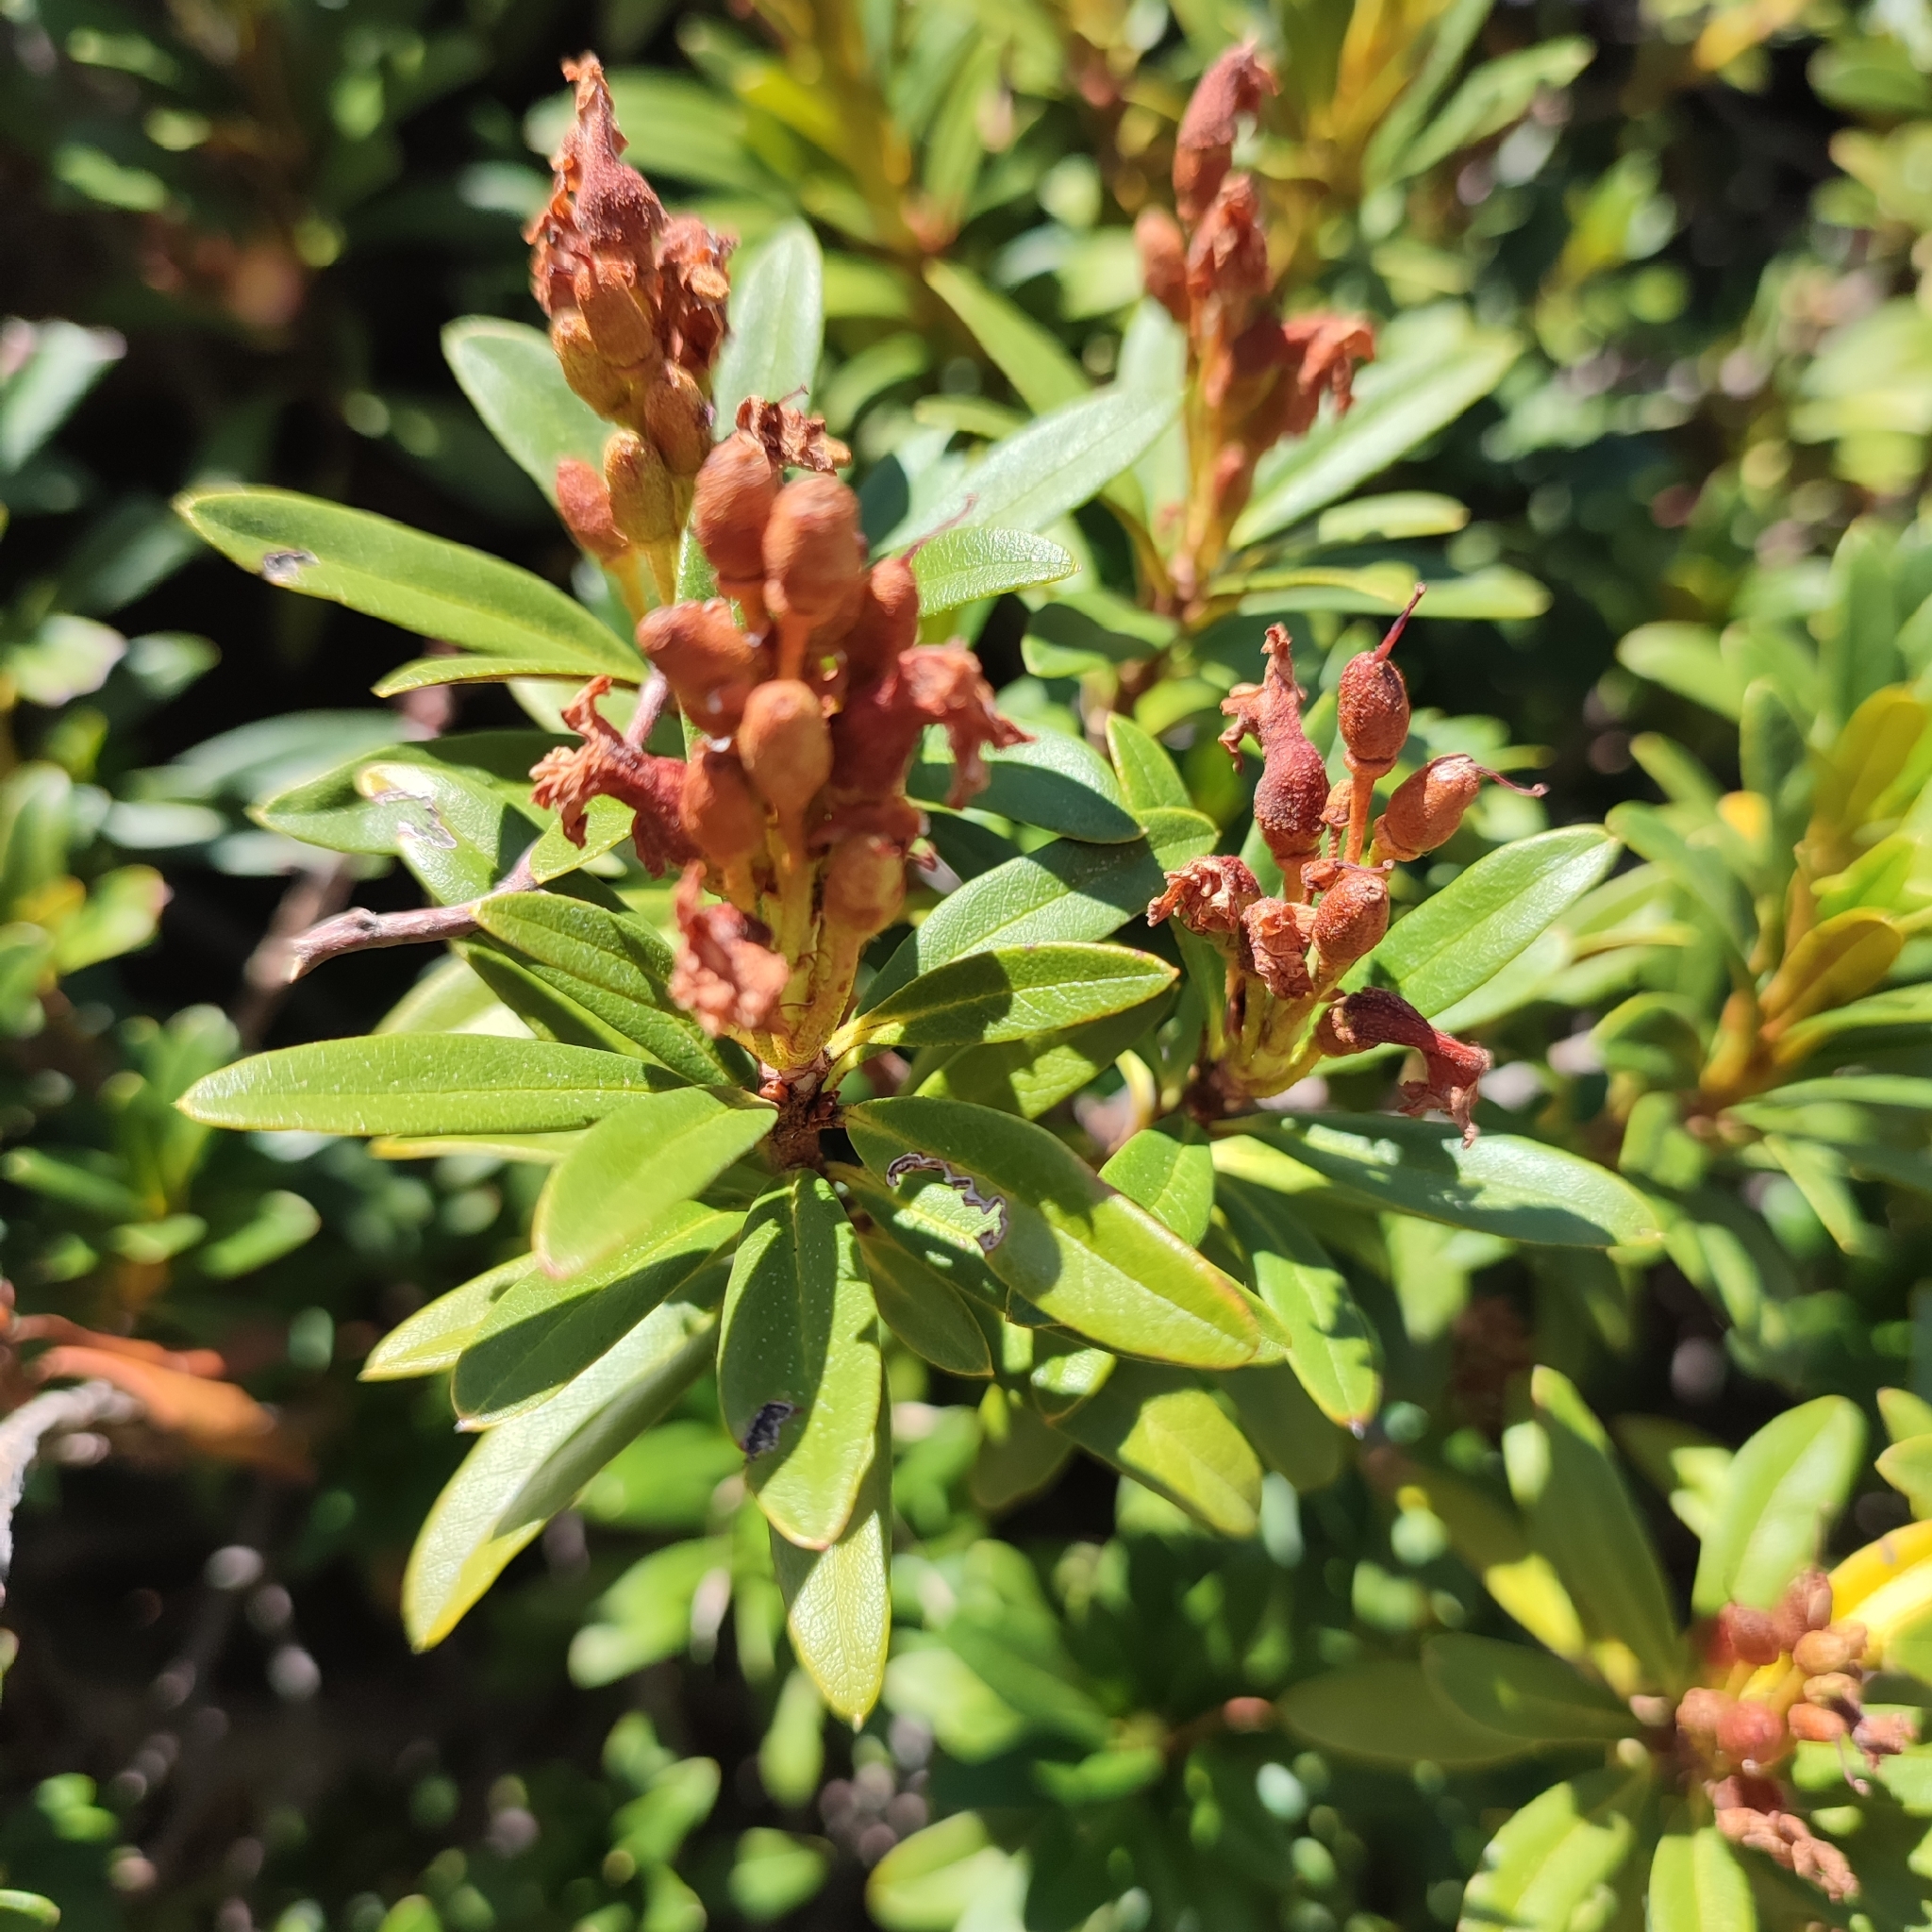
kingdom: Plantae
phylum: Tracheophyta
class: Magnoliopsida
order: Ericales
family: Ericaceae
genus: Rhododendron
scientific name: Rhododendron ferrugineum
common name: Alpenrose
